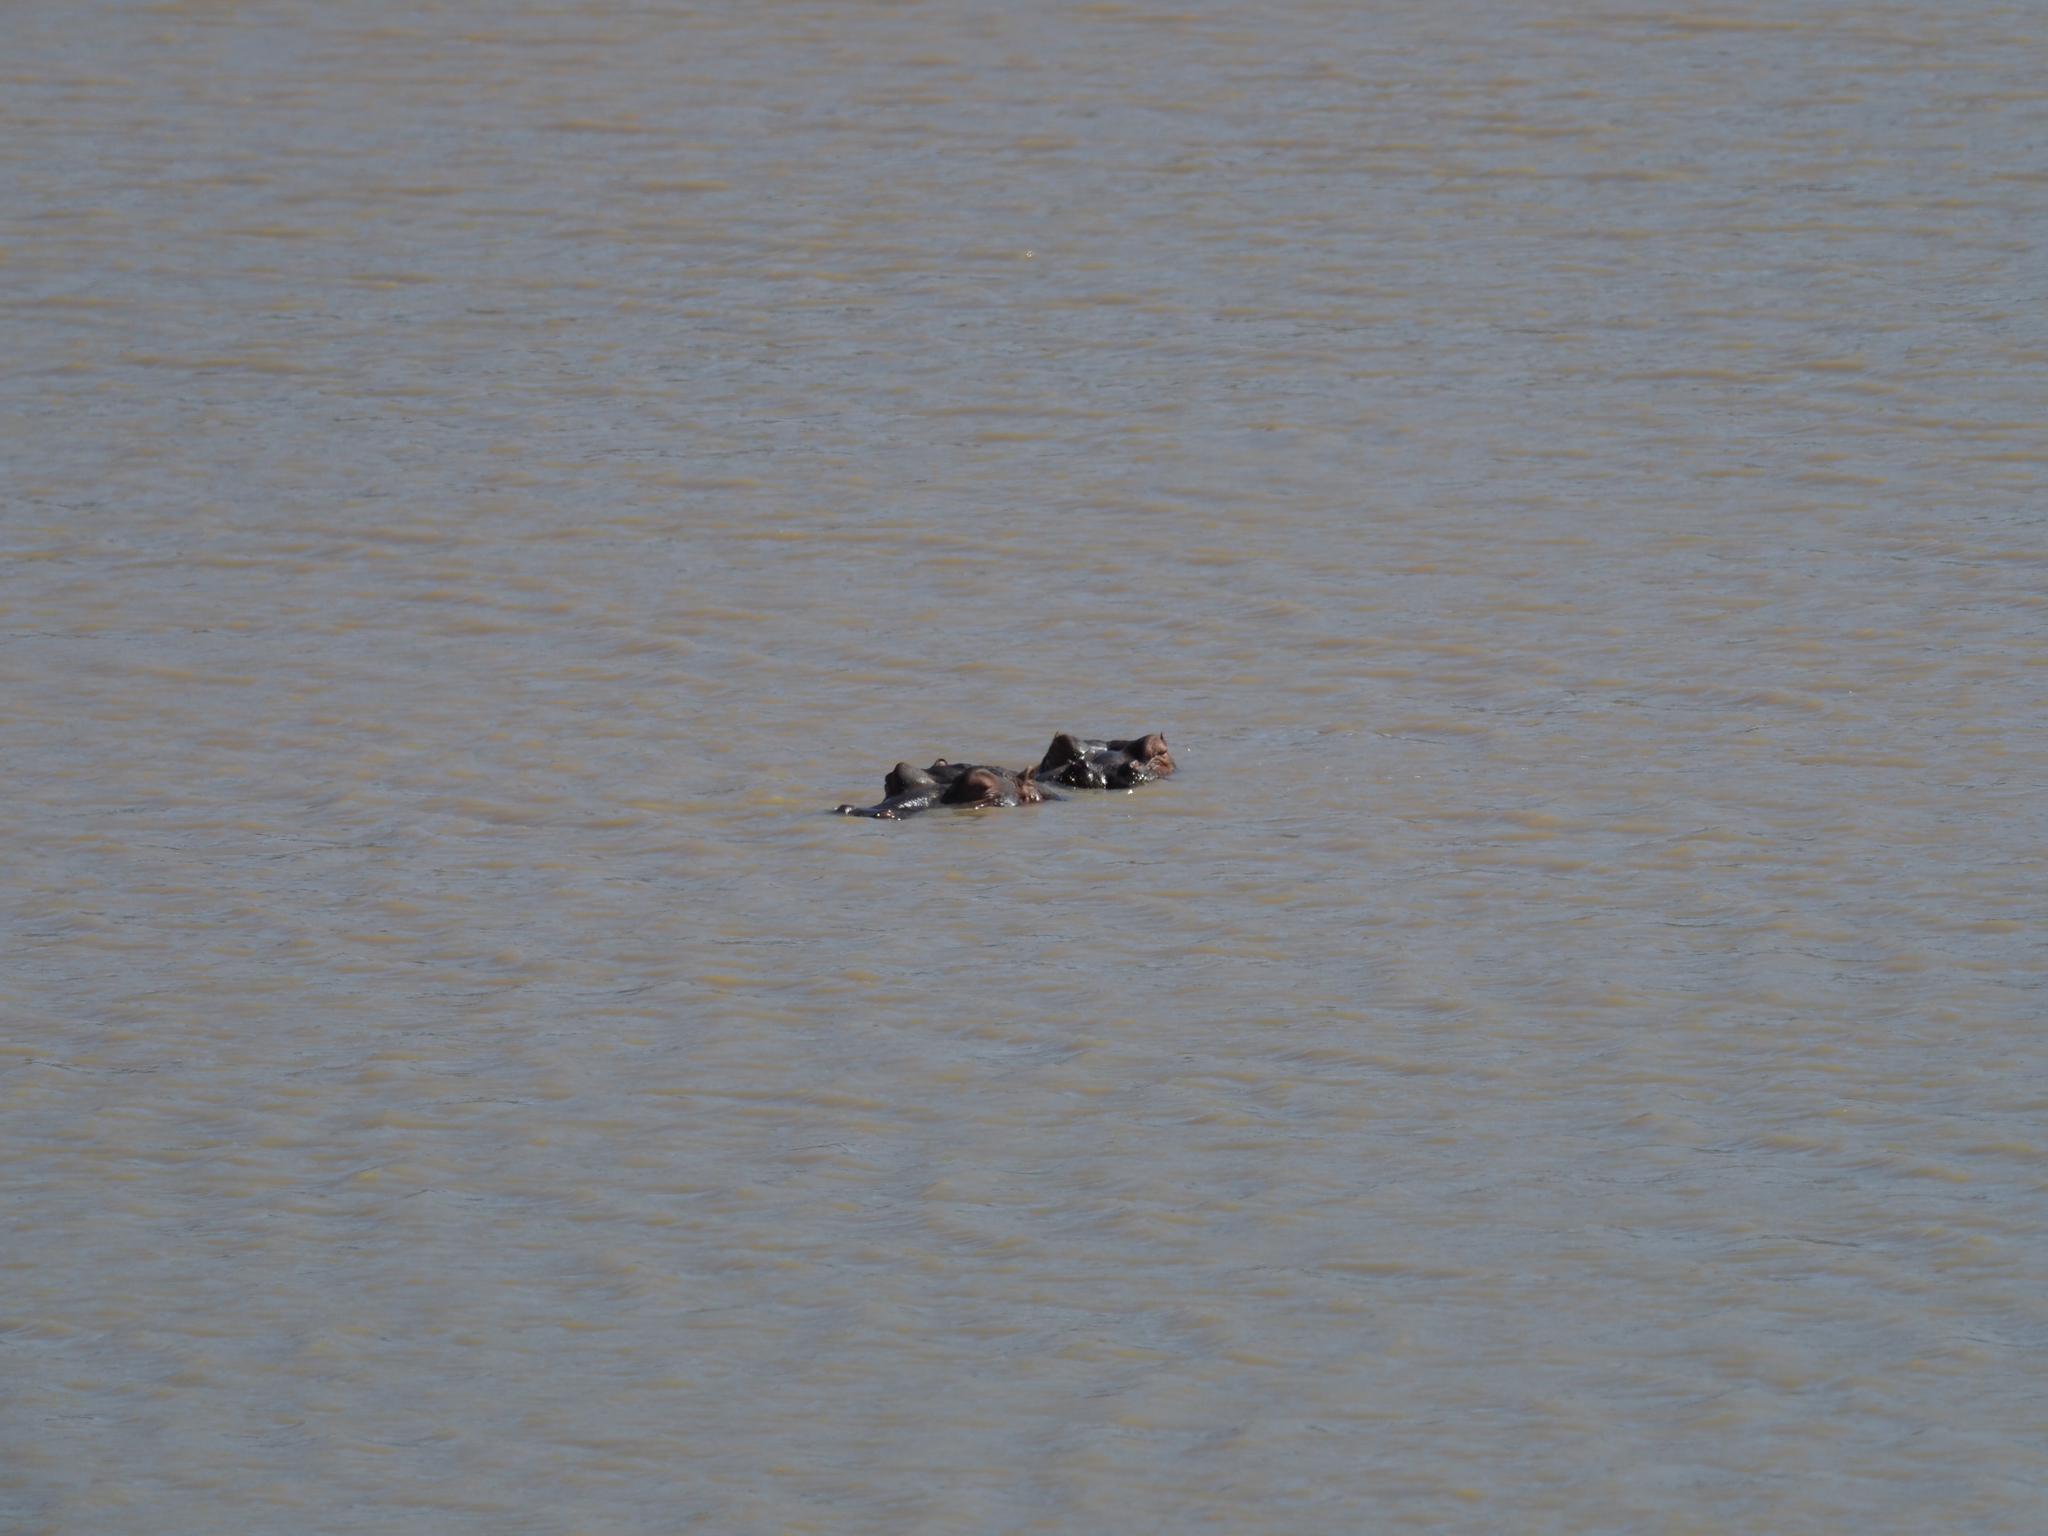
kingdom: Animalia
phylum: Chordata
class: Mammalia
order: Artiodactyla
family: Hippopotamidae
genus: Hippopotamus
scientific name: Hippopotamus amphibius
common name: Common hippopotamus
